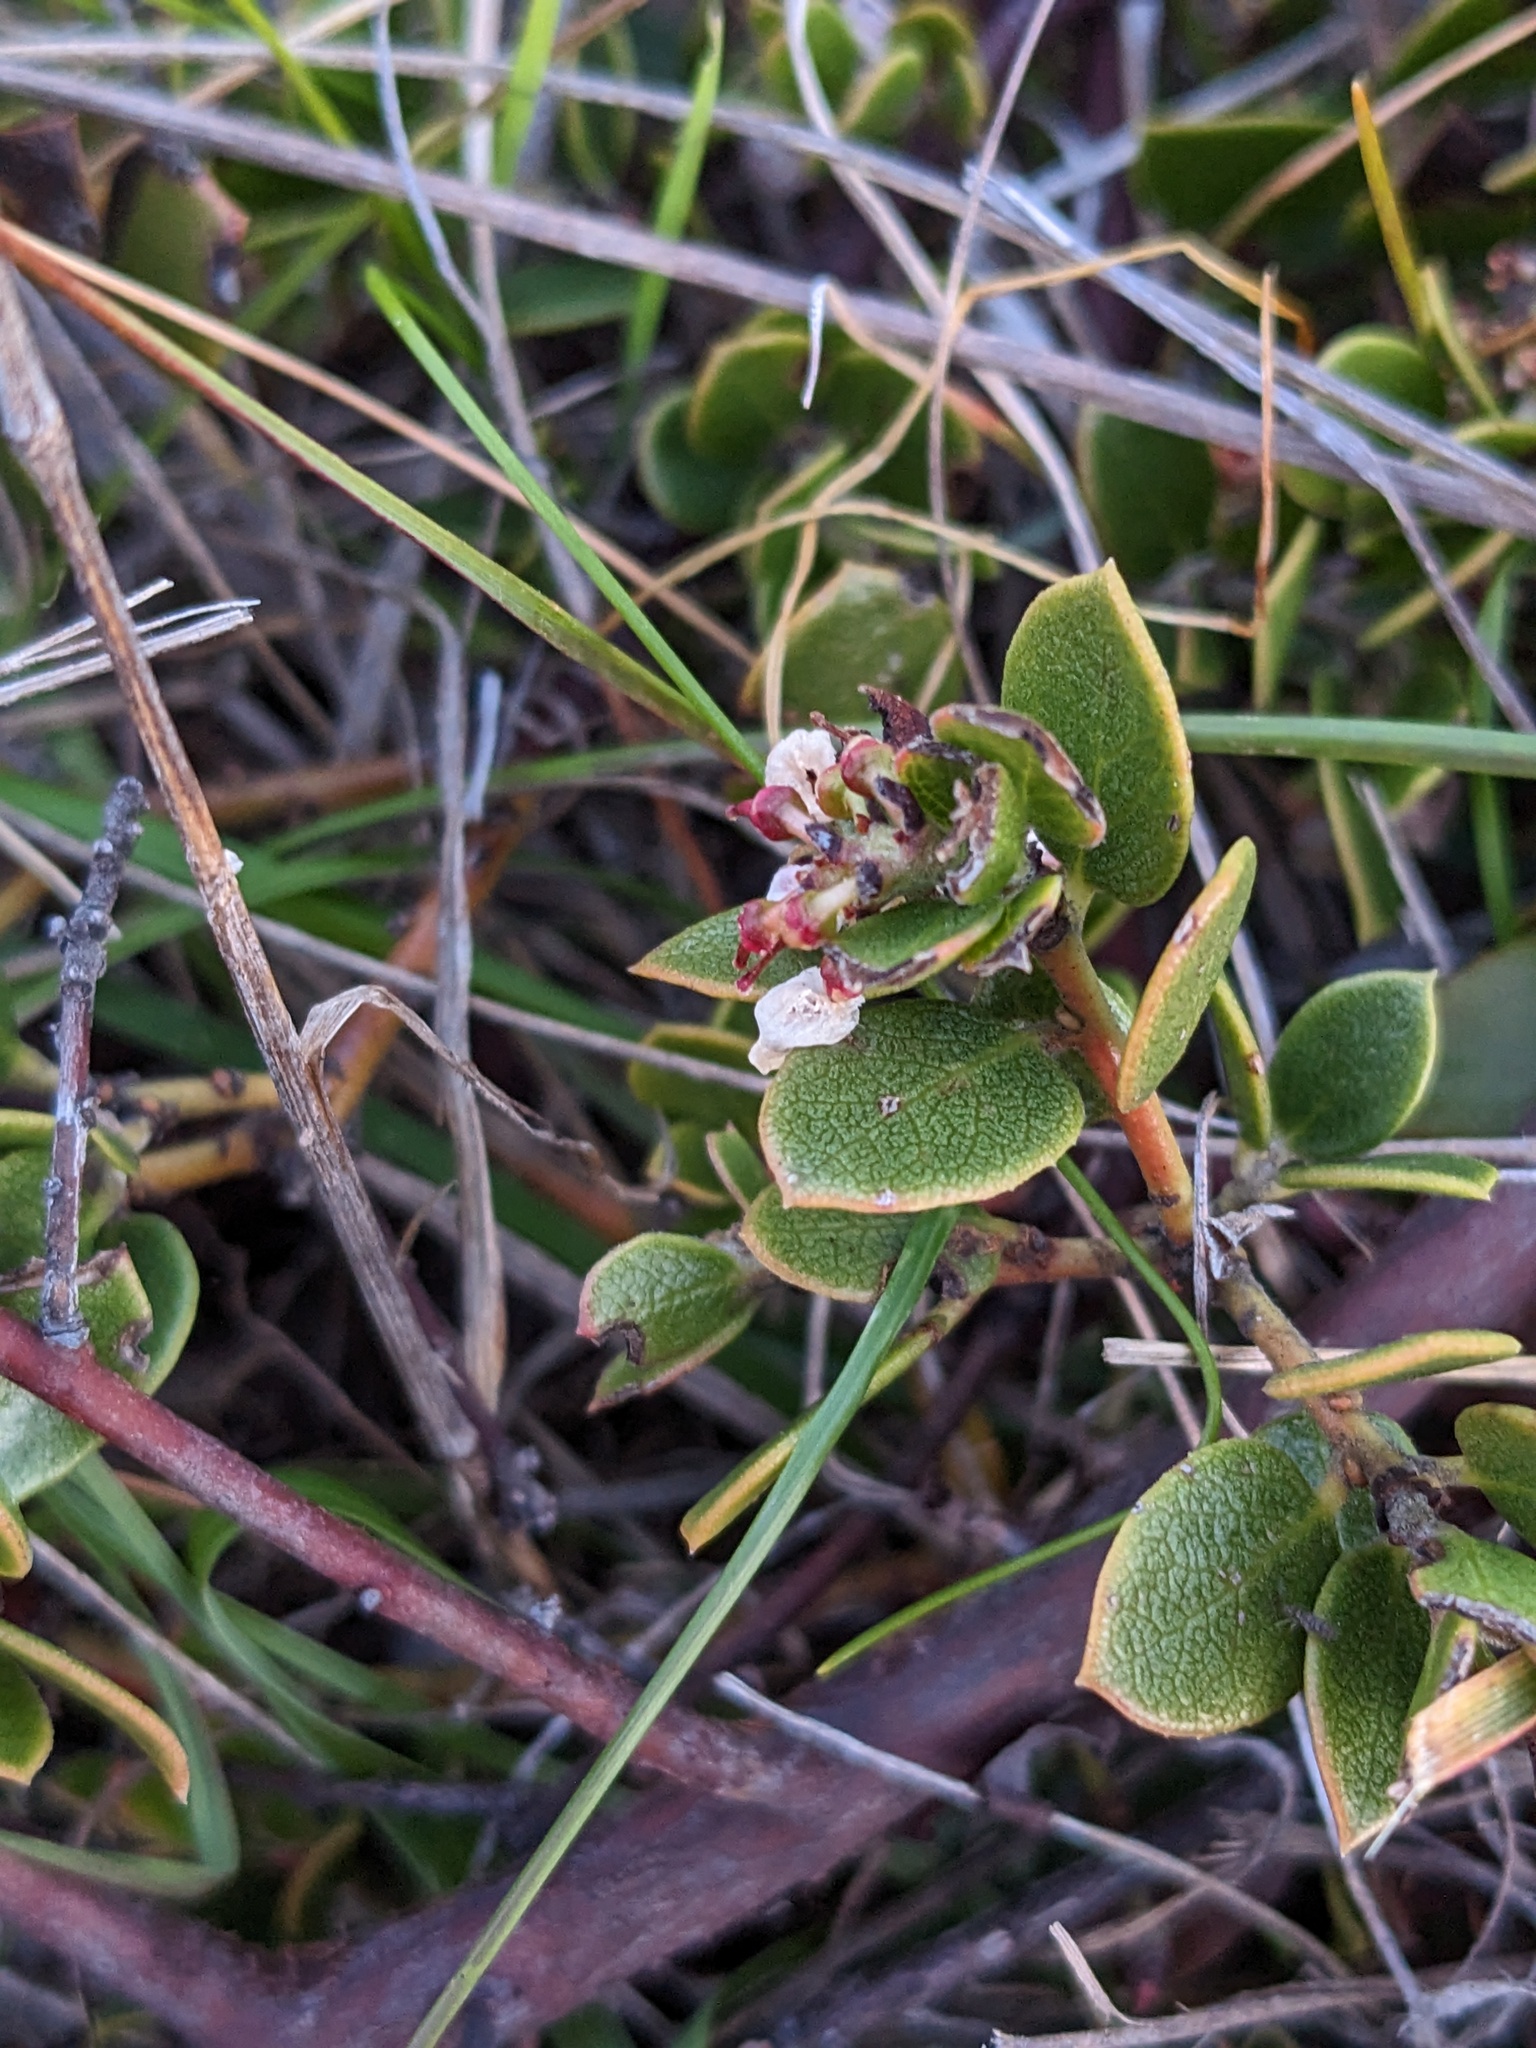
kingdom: Plantae
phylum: Tracheophyta
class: Magnoliopsida
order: Ericales
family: Ericaceae
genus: Arctostaphylos
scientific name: Arctostaphylos hookeri
